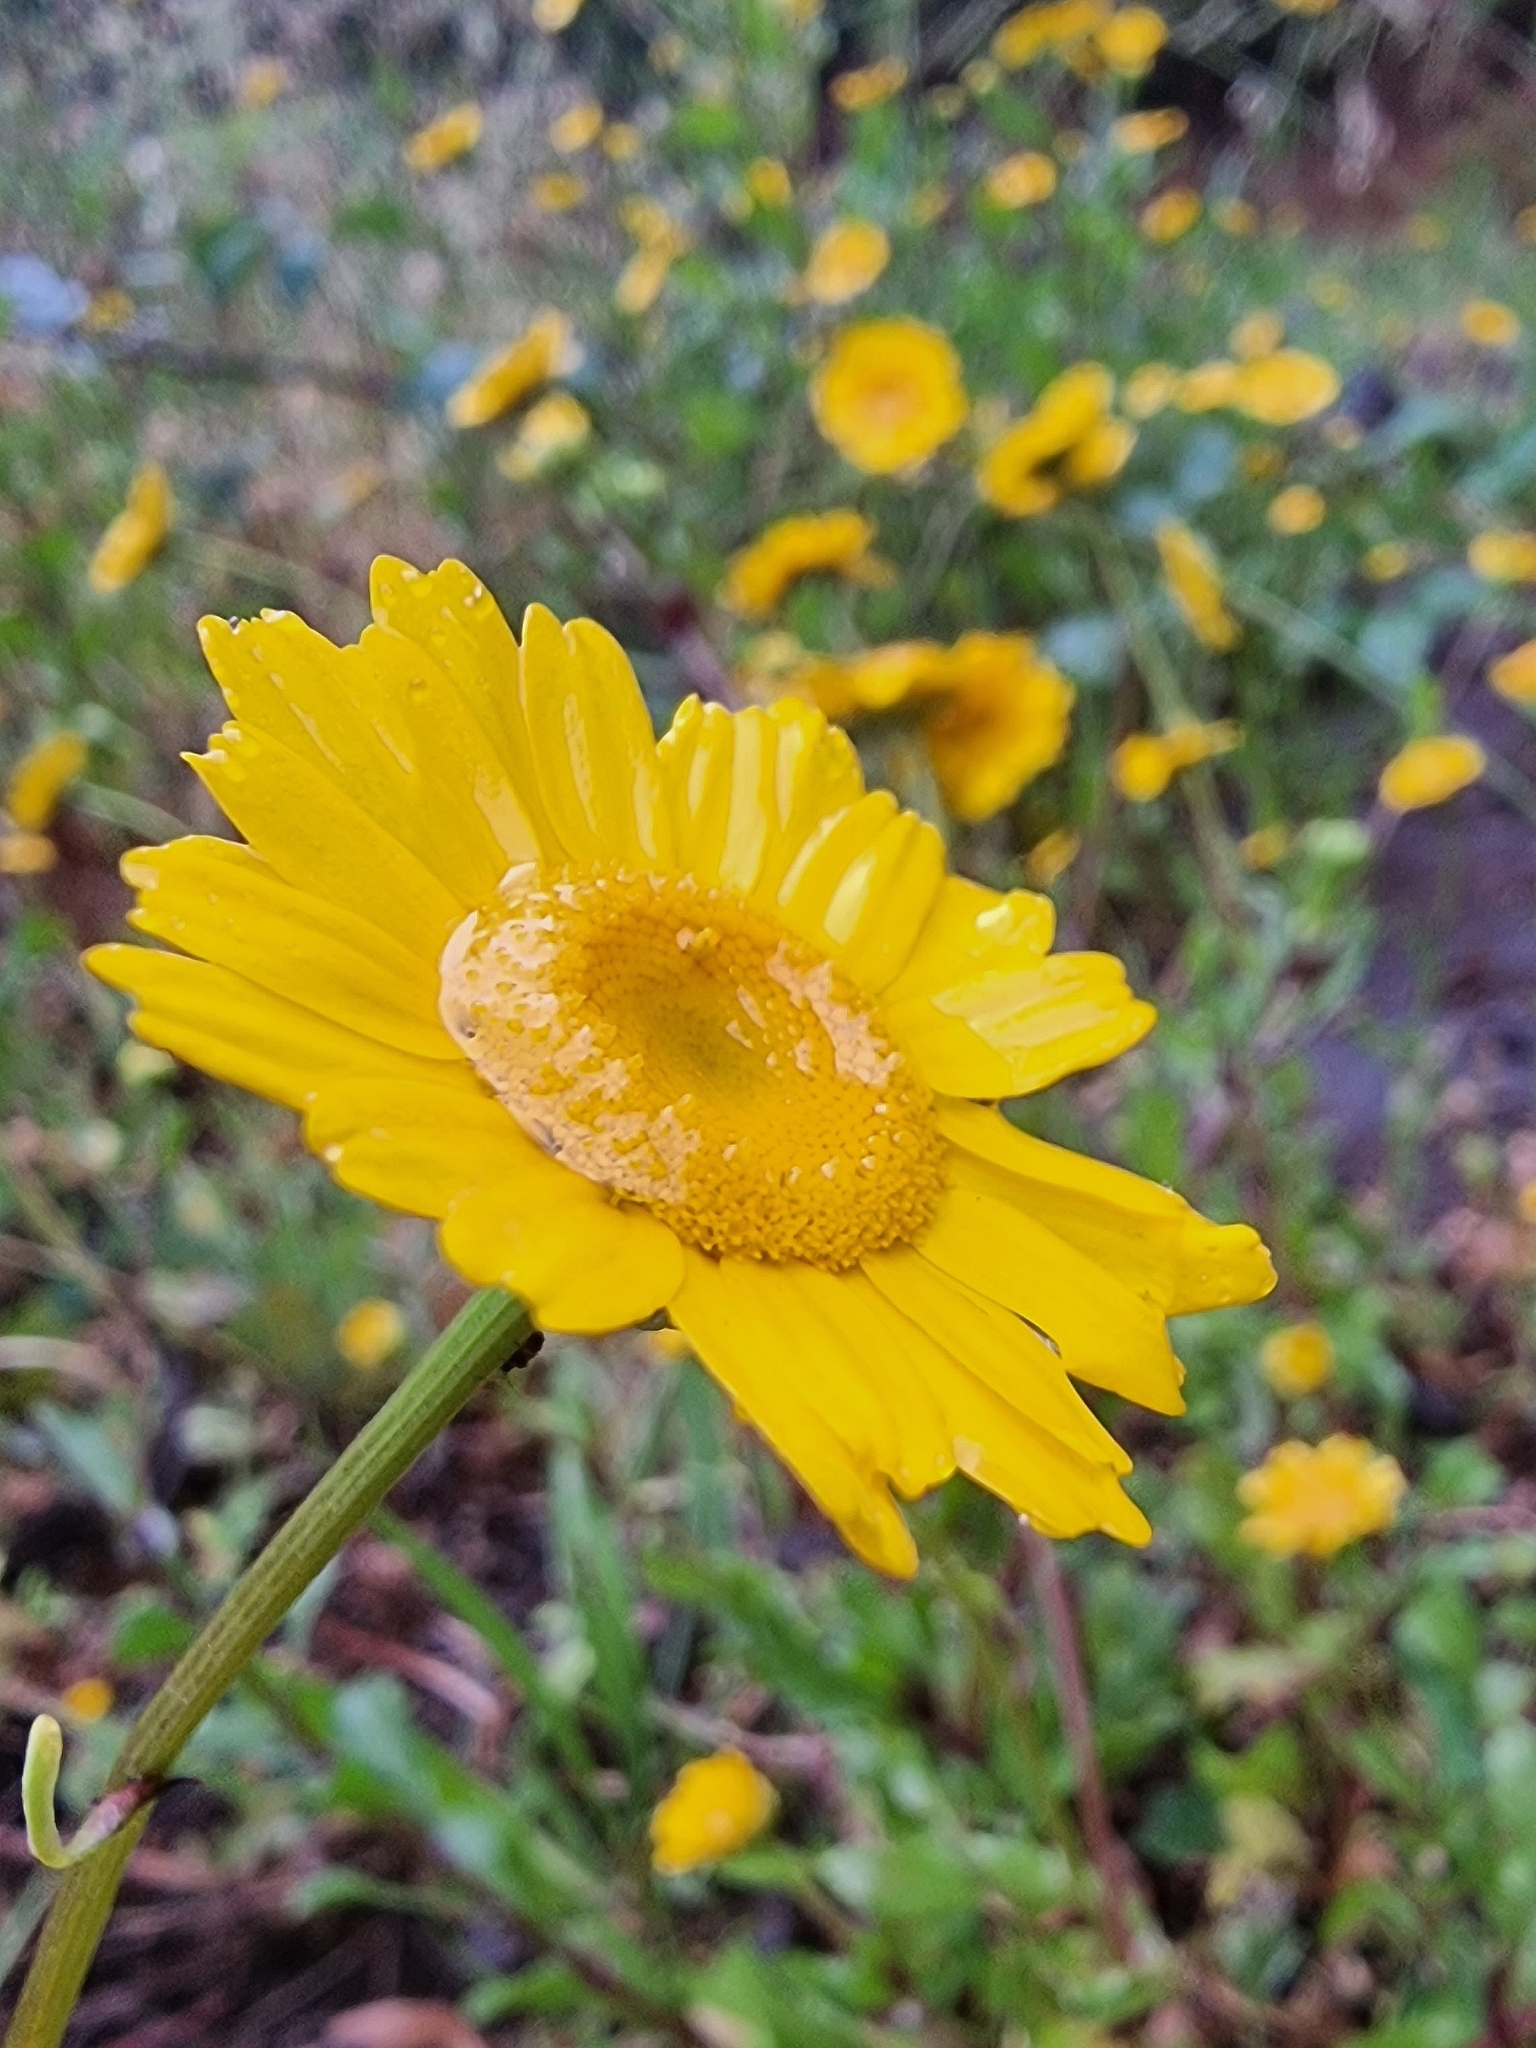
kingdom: Plantae
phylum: Tracheophyta
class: Magnoliopsida
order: Asterales
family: Asteraceae
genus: Coleostephus
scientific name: Coleostephus myconis
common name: Mediterranean marigold
